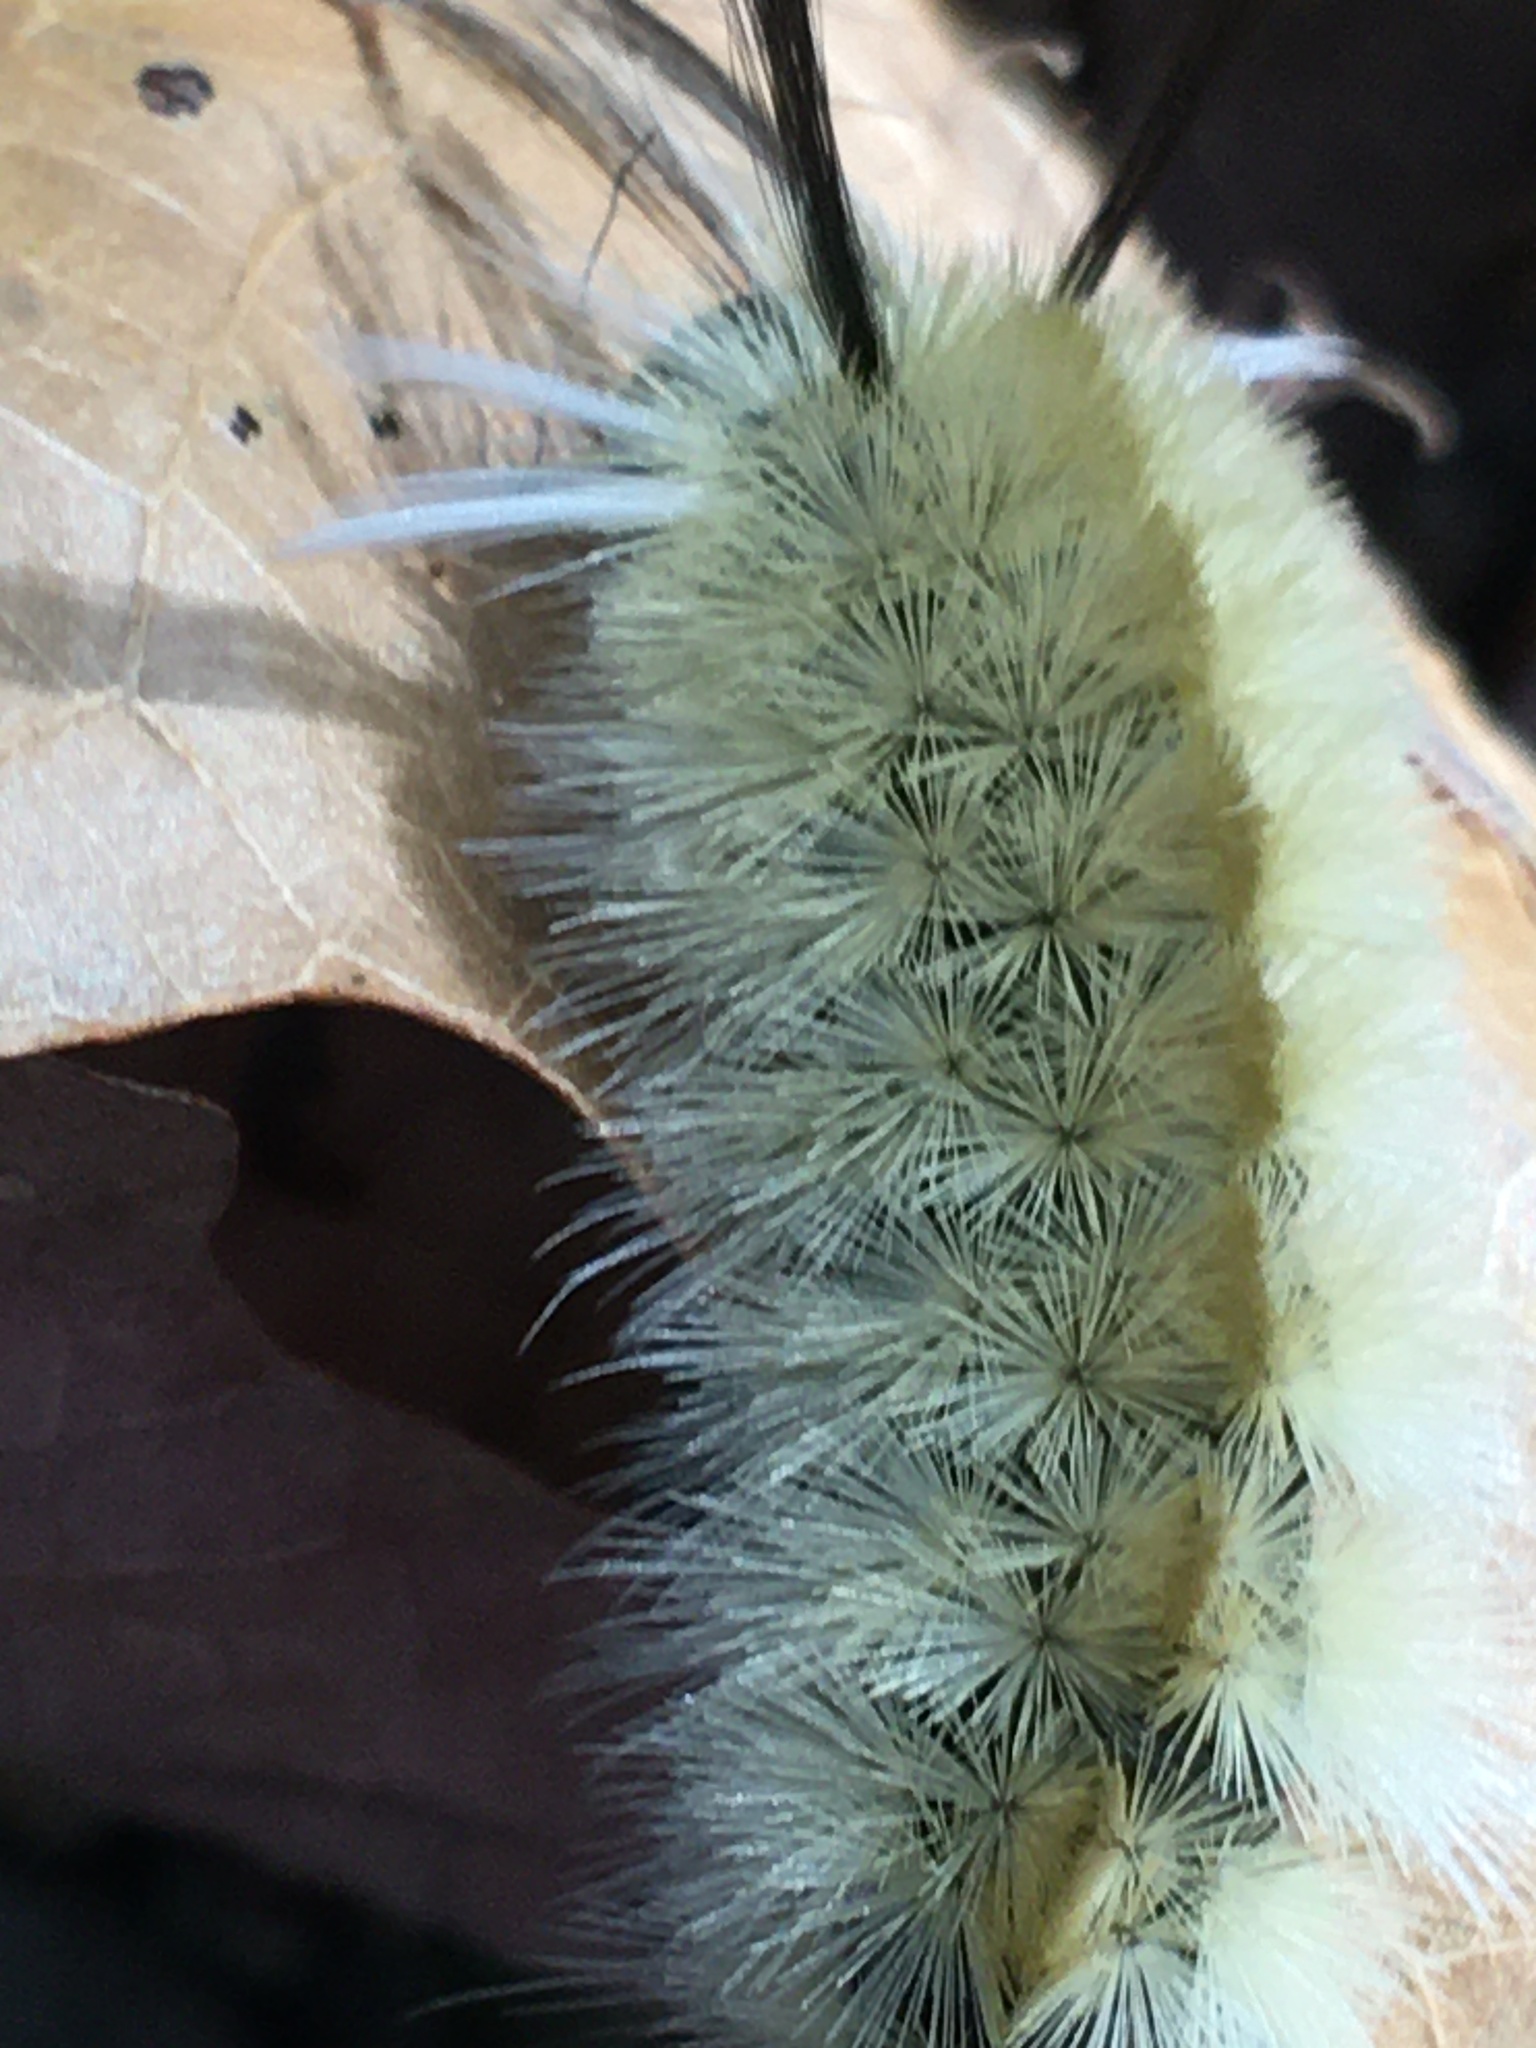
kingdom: Animalia
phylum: Arthropoda
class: Insecta
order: Lepidoptera
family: Erebidae
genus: Halysidota
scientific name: Halysidota tessellaris
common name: Banded tussock moth
